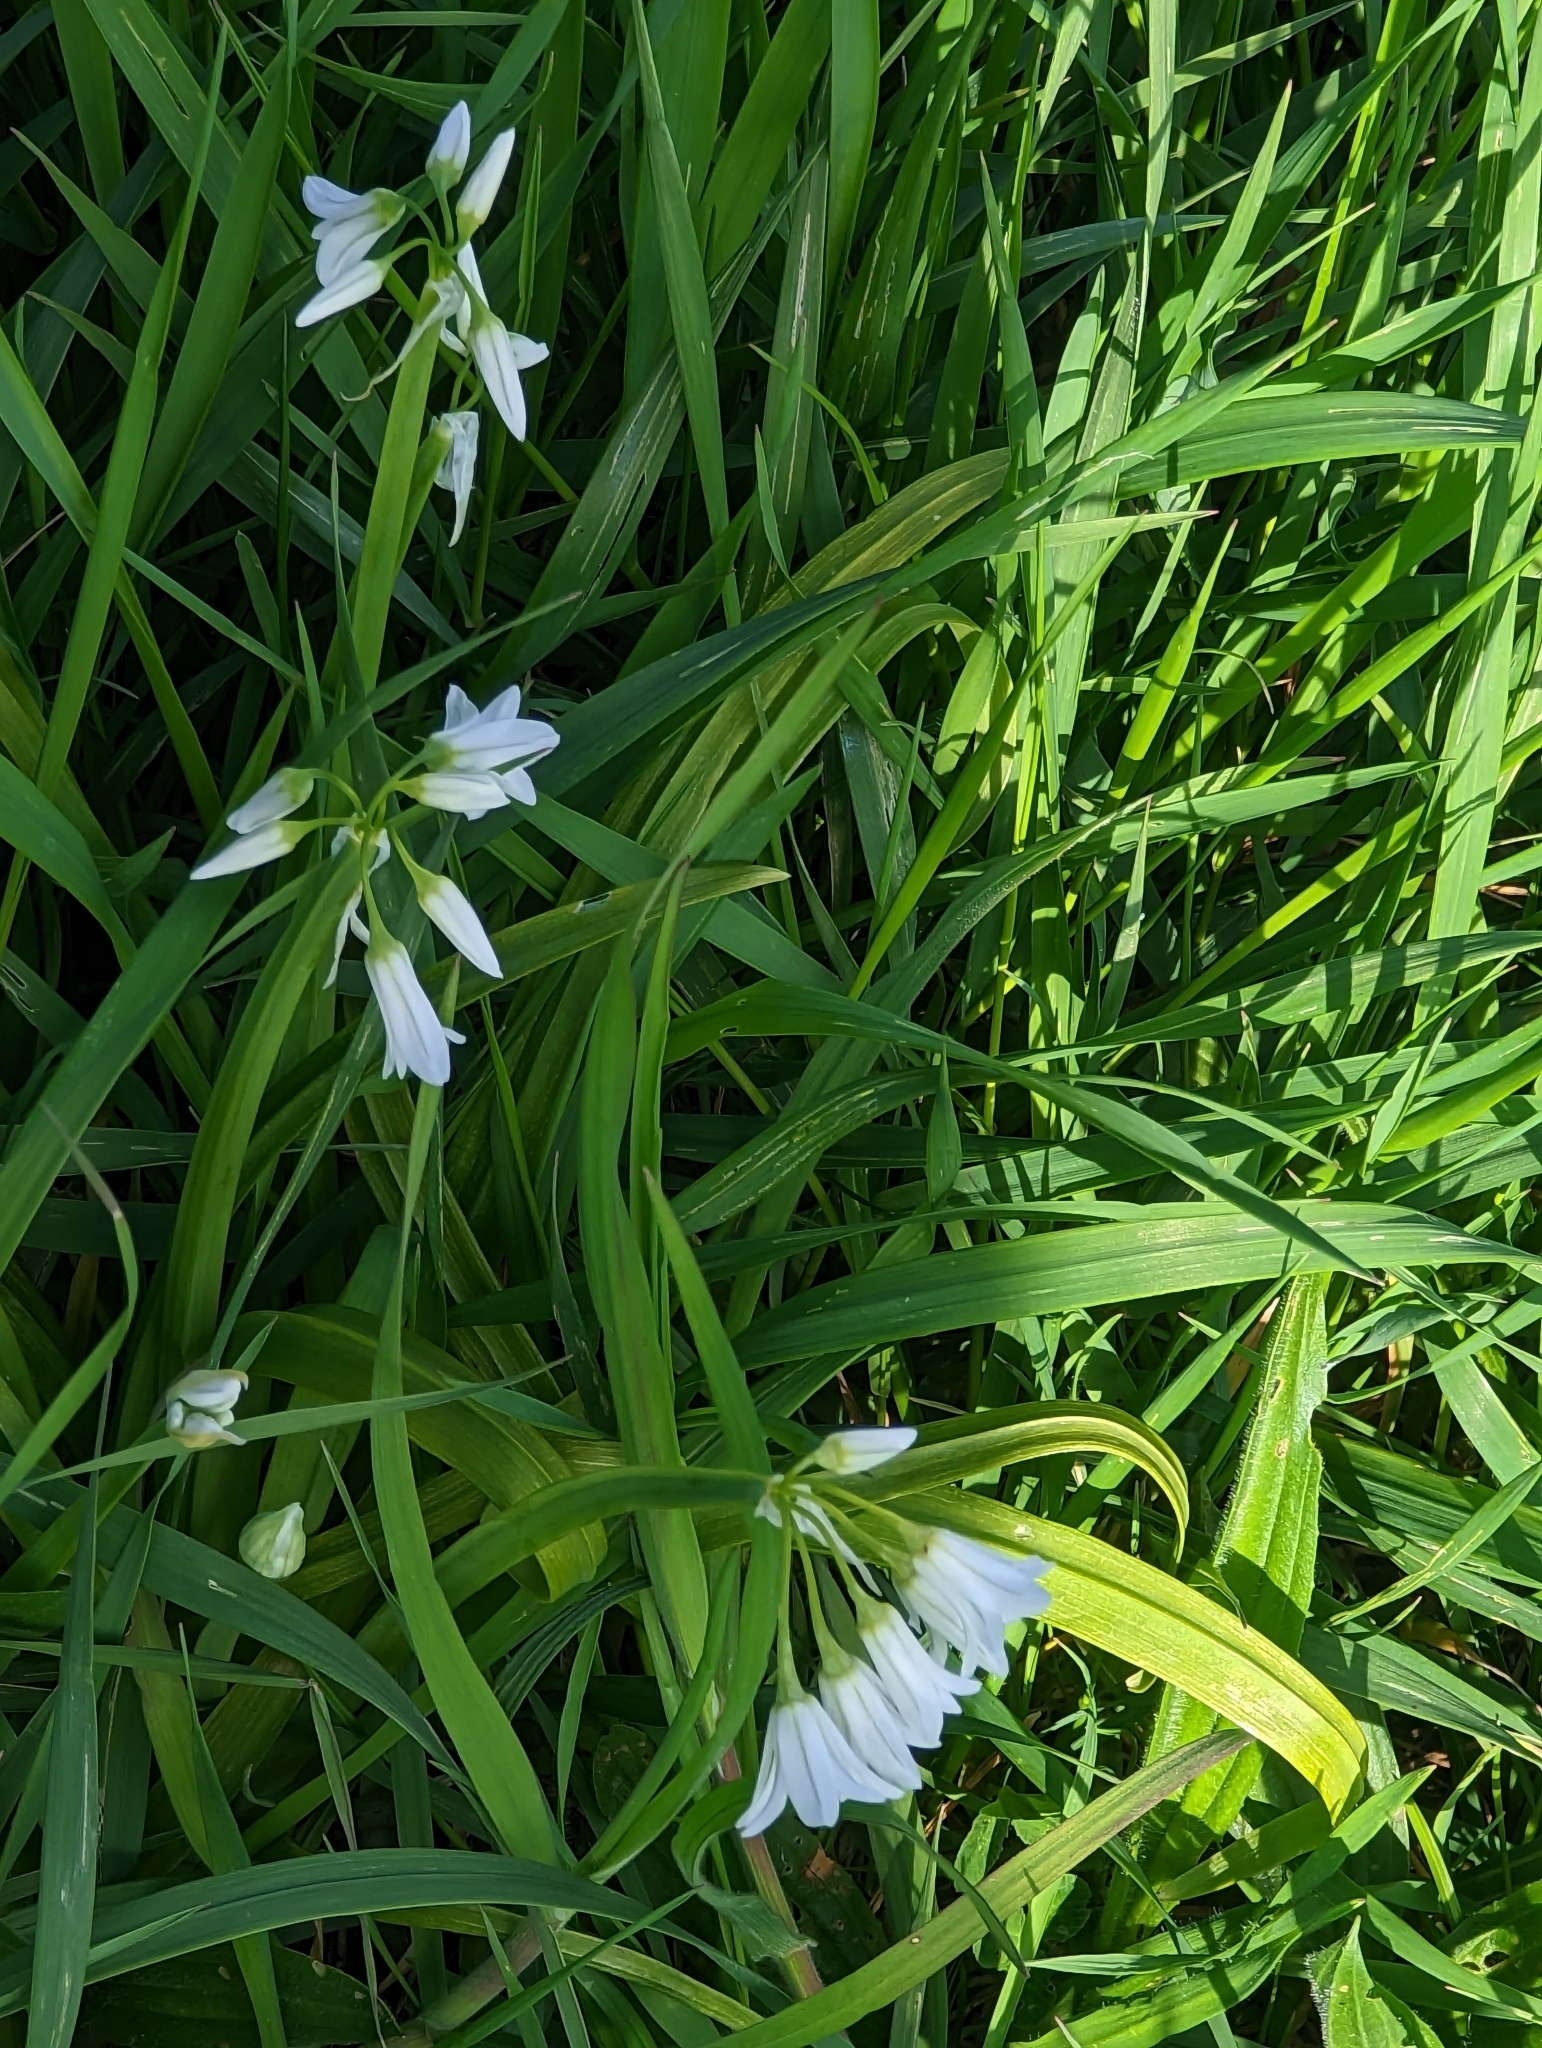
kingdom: Plantae
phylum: Tracheophyta
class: Liliopsida
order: Asparagales
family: Amaryllidaceae
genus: Allium
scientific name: Allium triquetrum
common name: Three-cornered garlic
